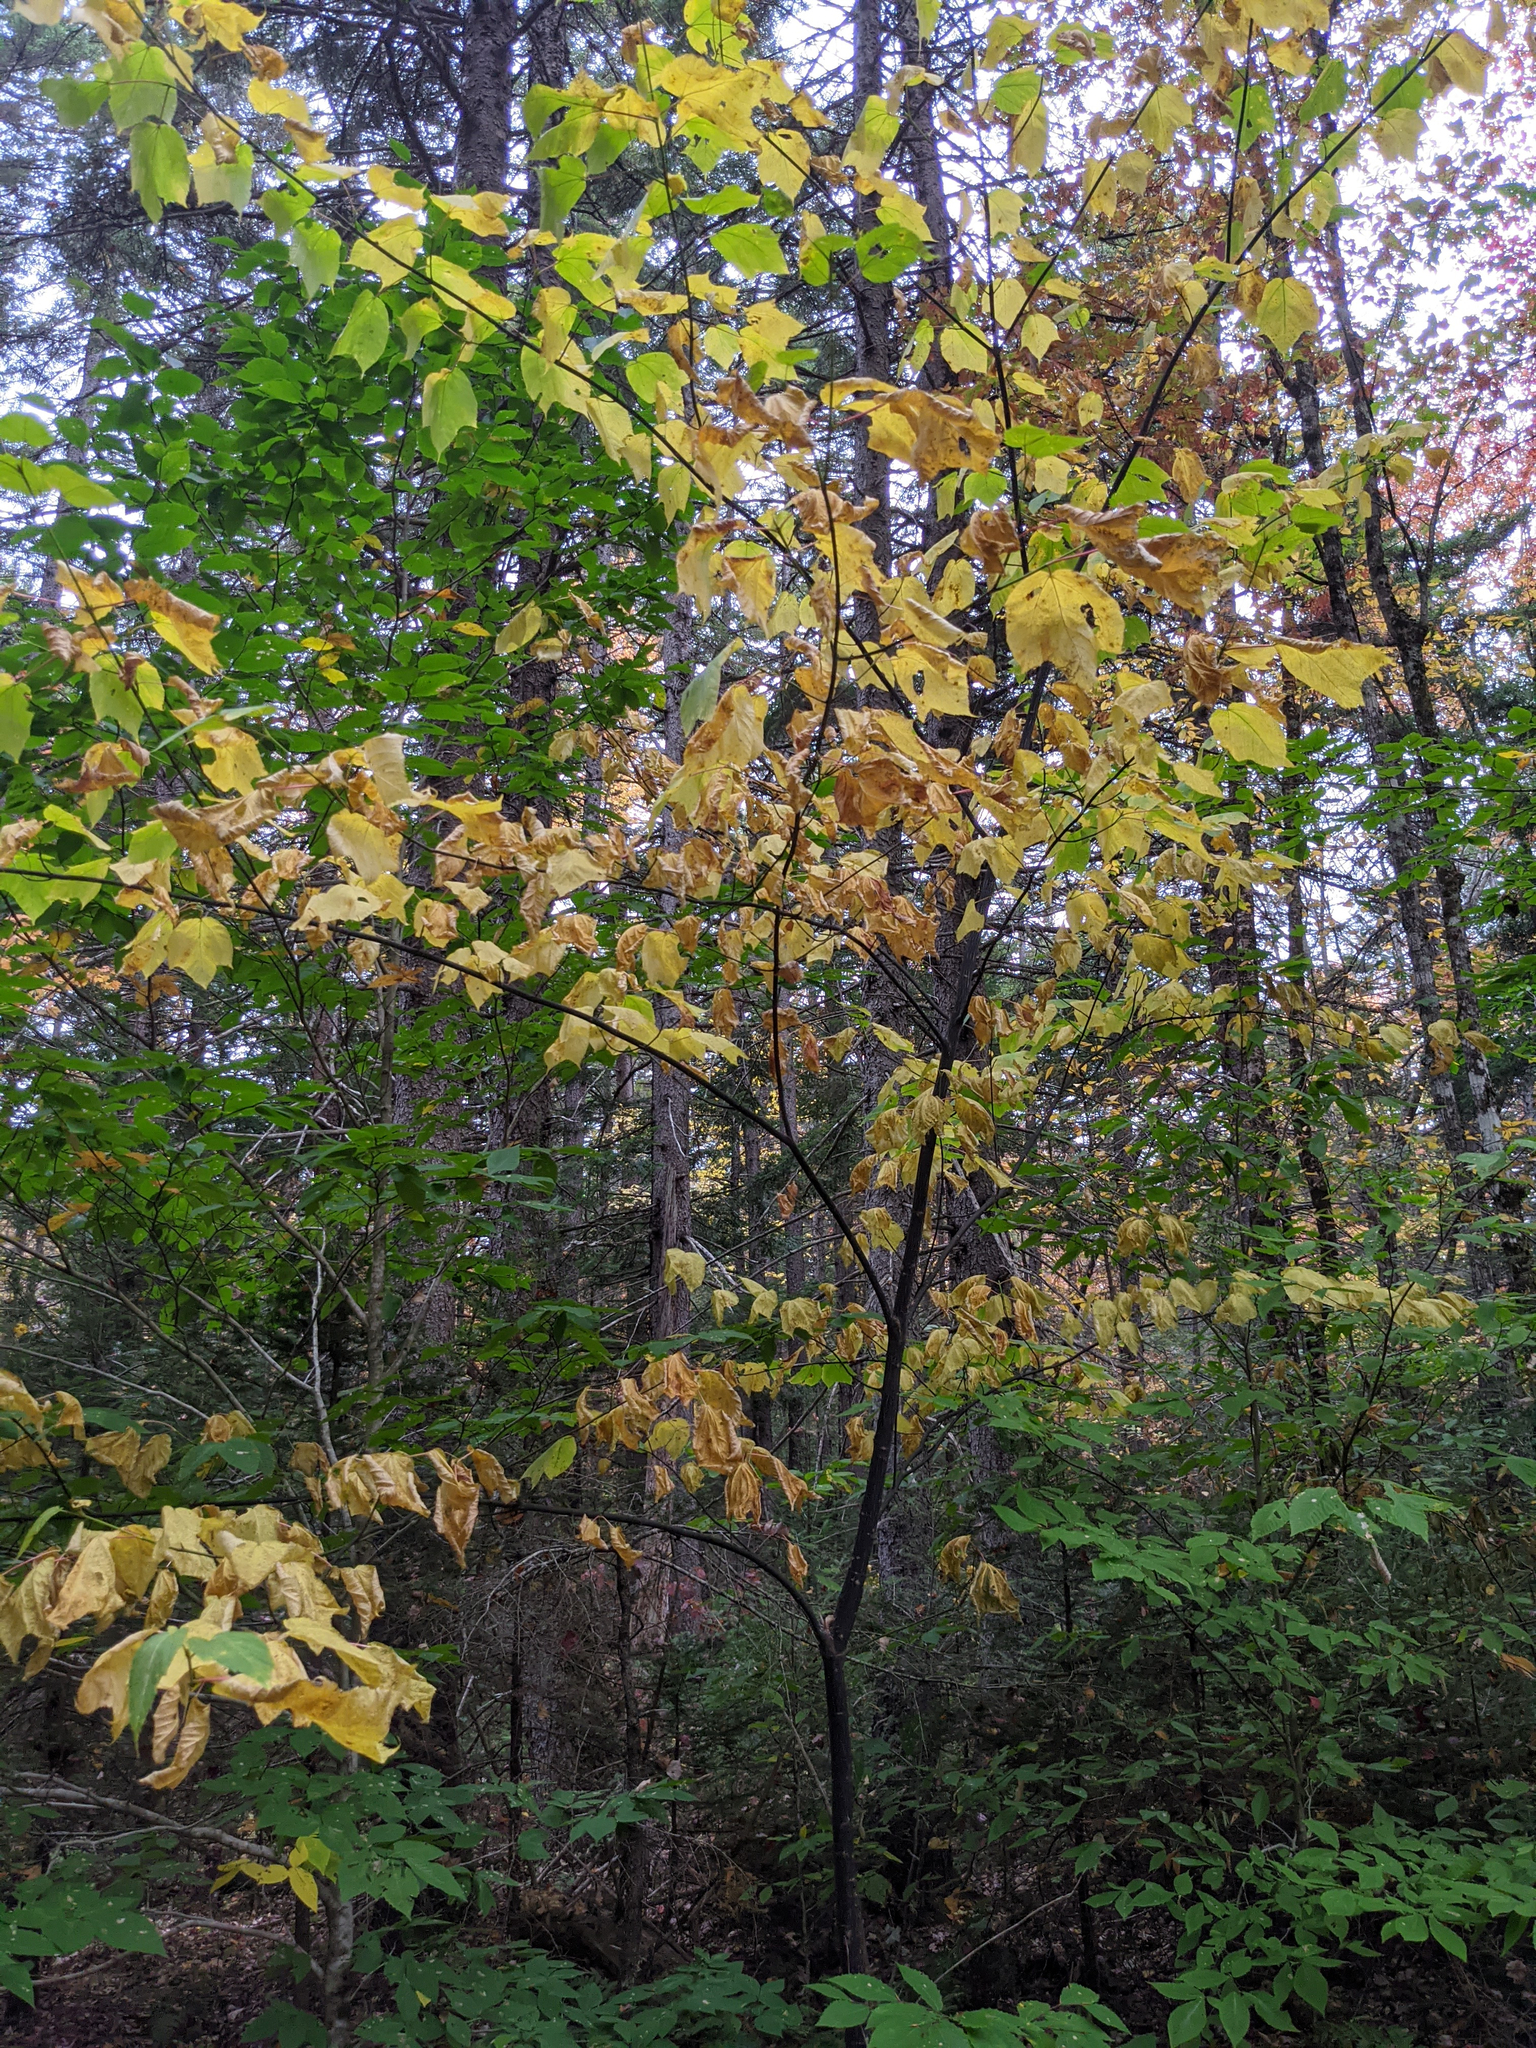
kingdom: Plantae
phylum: Tracheophyta
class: Magnoliopsida
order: Sapindales
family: Sapindaceae
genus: Acer
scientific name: Acer pensylvanicum
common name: Moosewood
